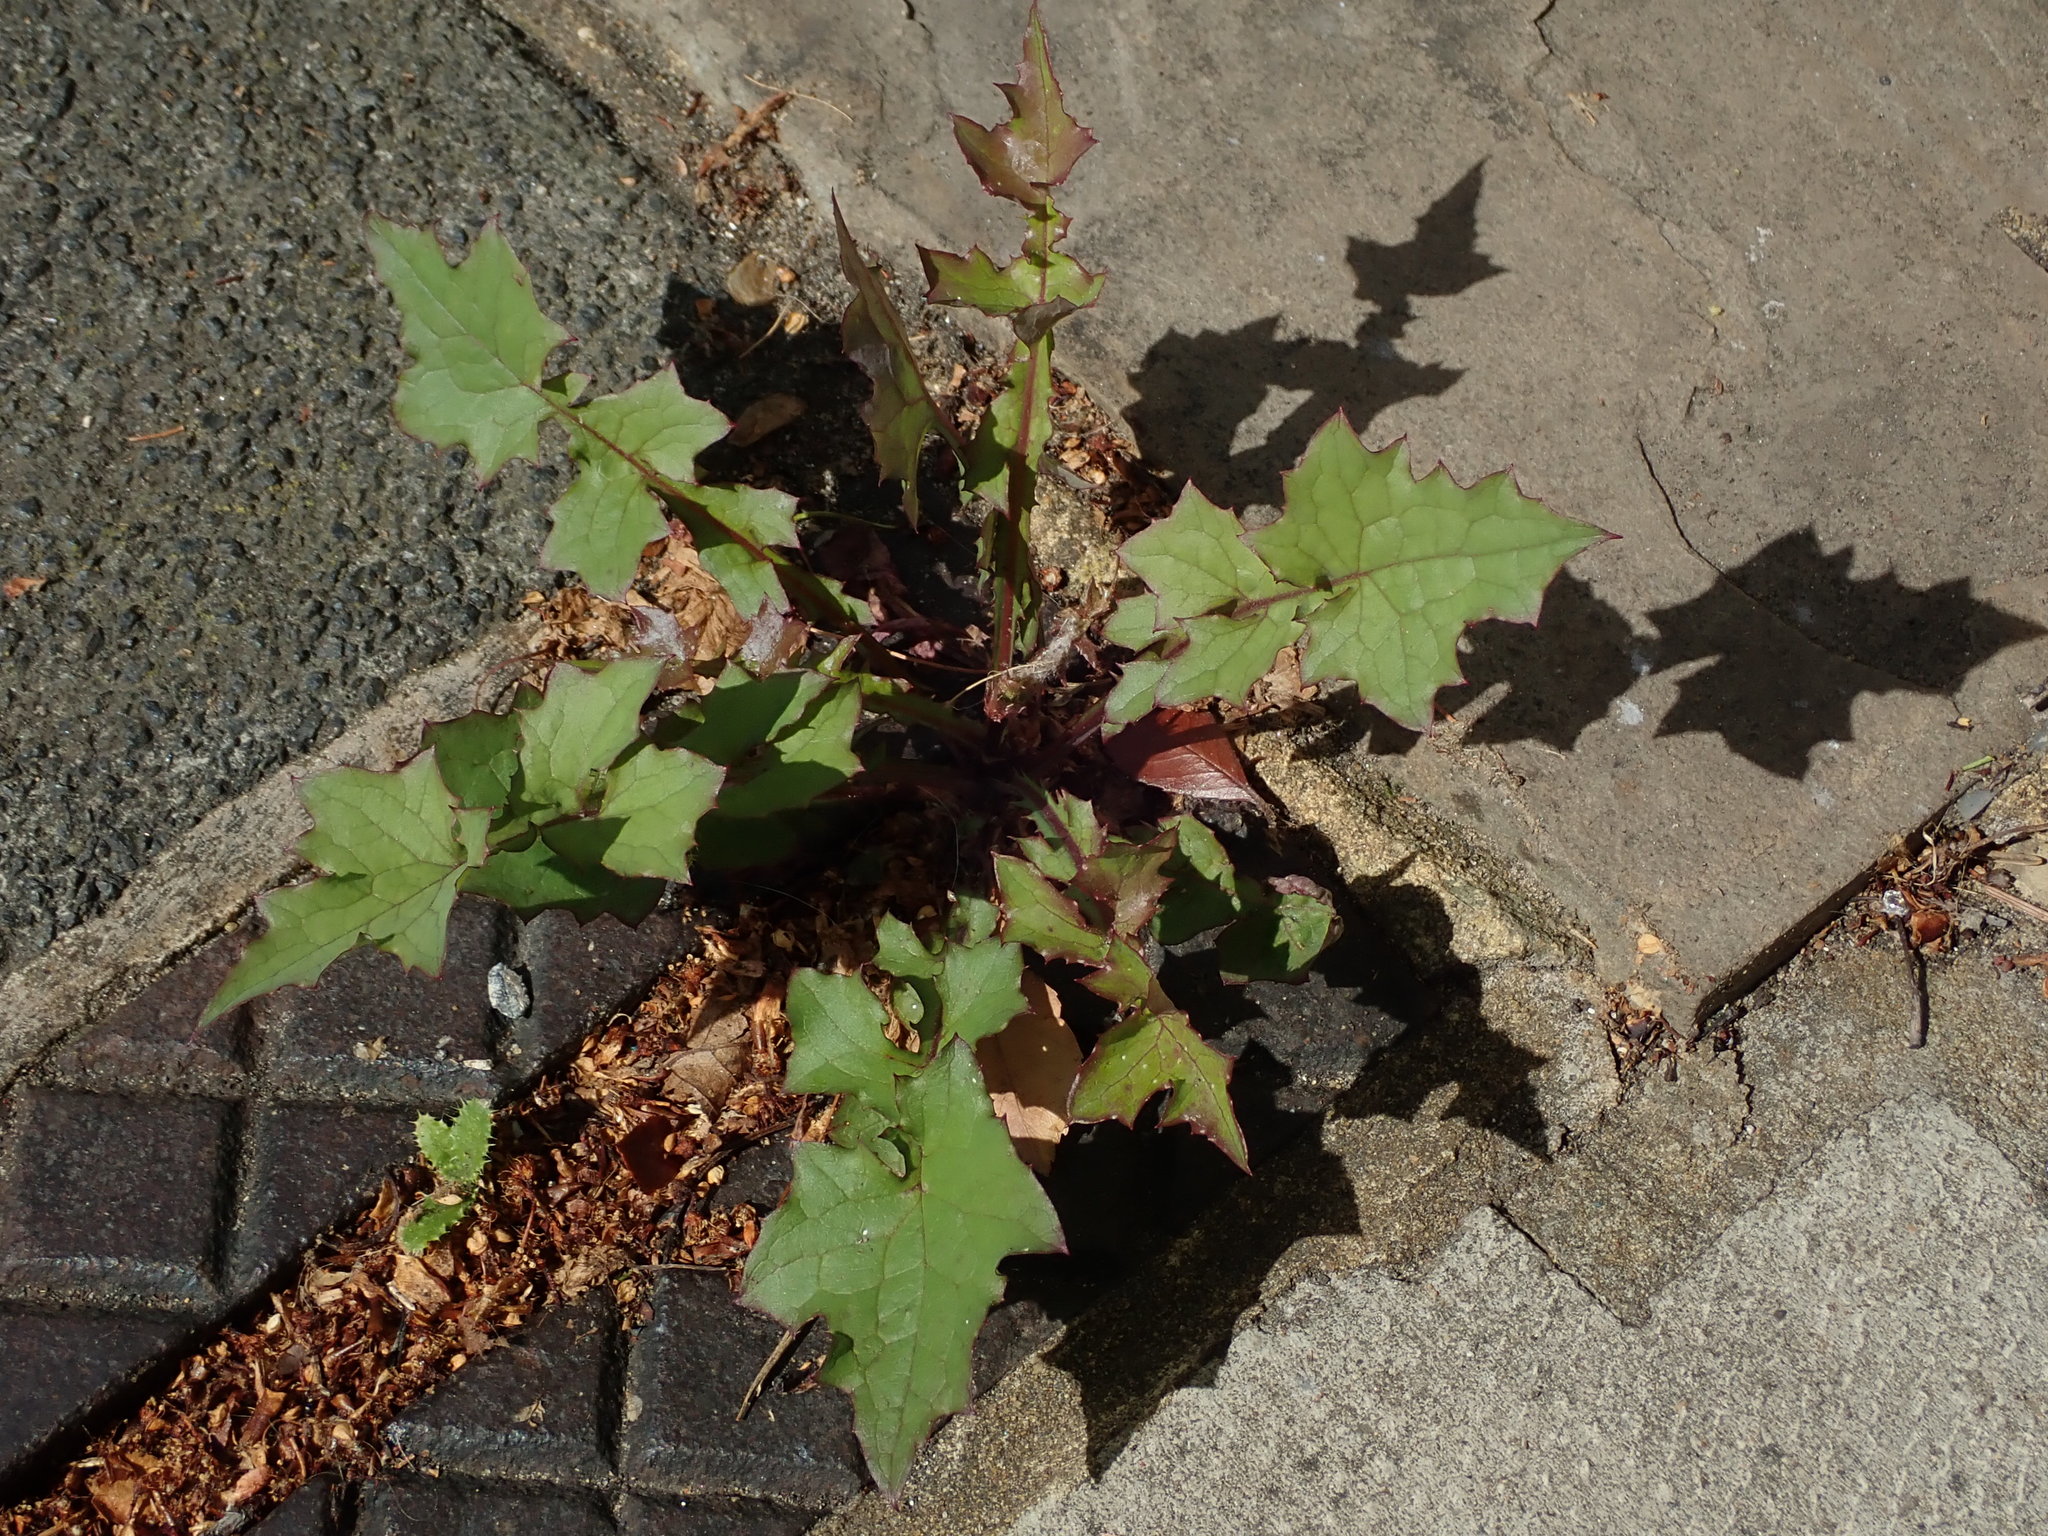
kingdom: Plantae
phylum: Tracheophyta
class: Magnoliopsida
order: Asterales
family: Asteraceae
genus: Mycelis
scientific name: Mycelis muralis
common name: Wall lettuce
